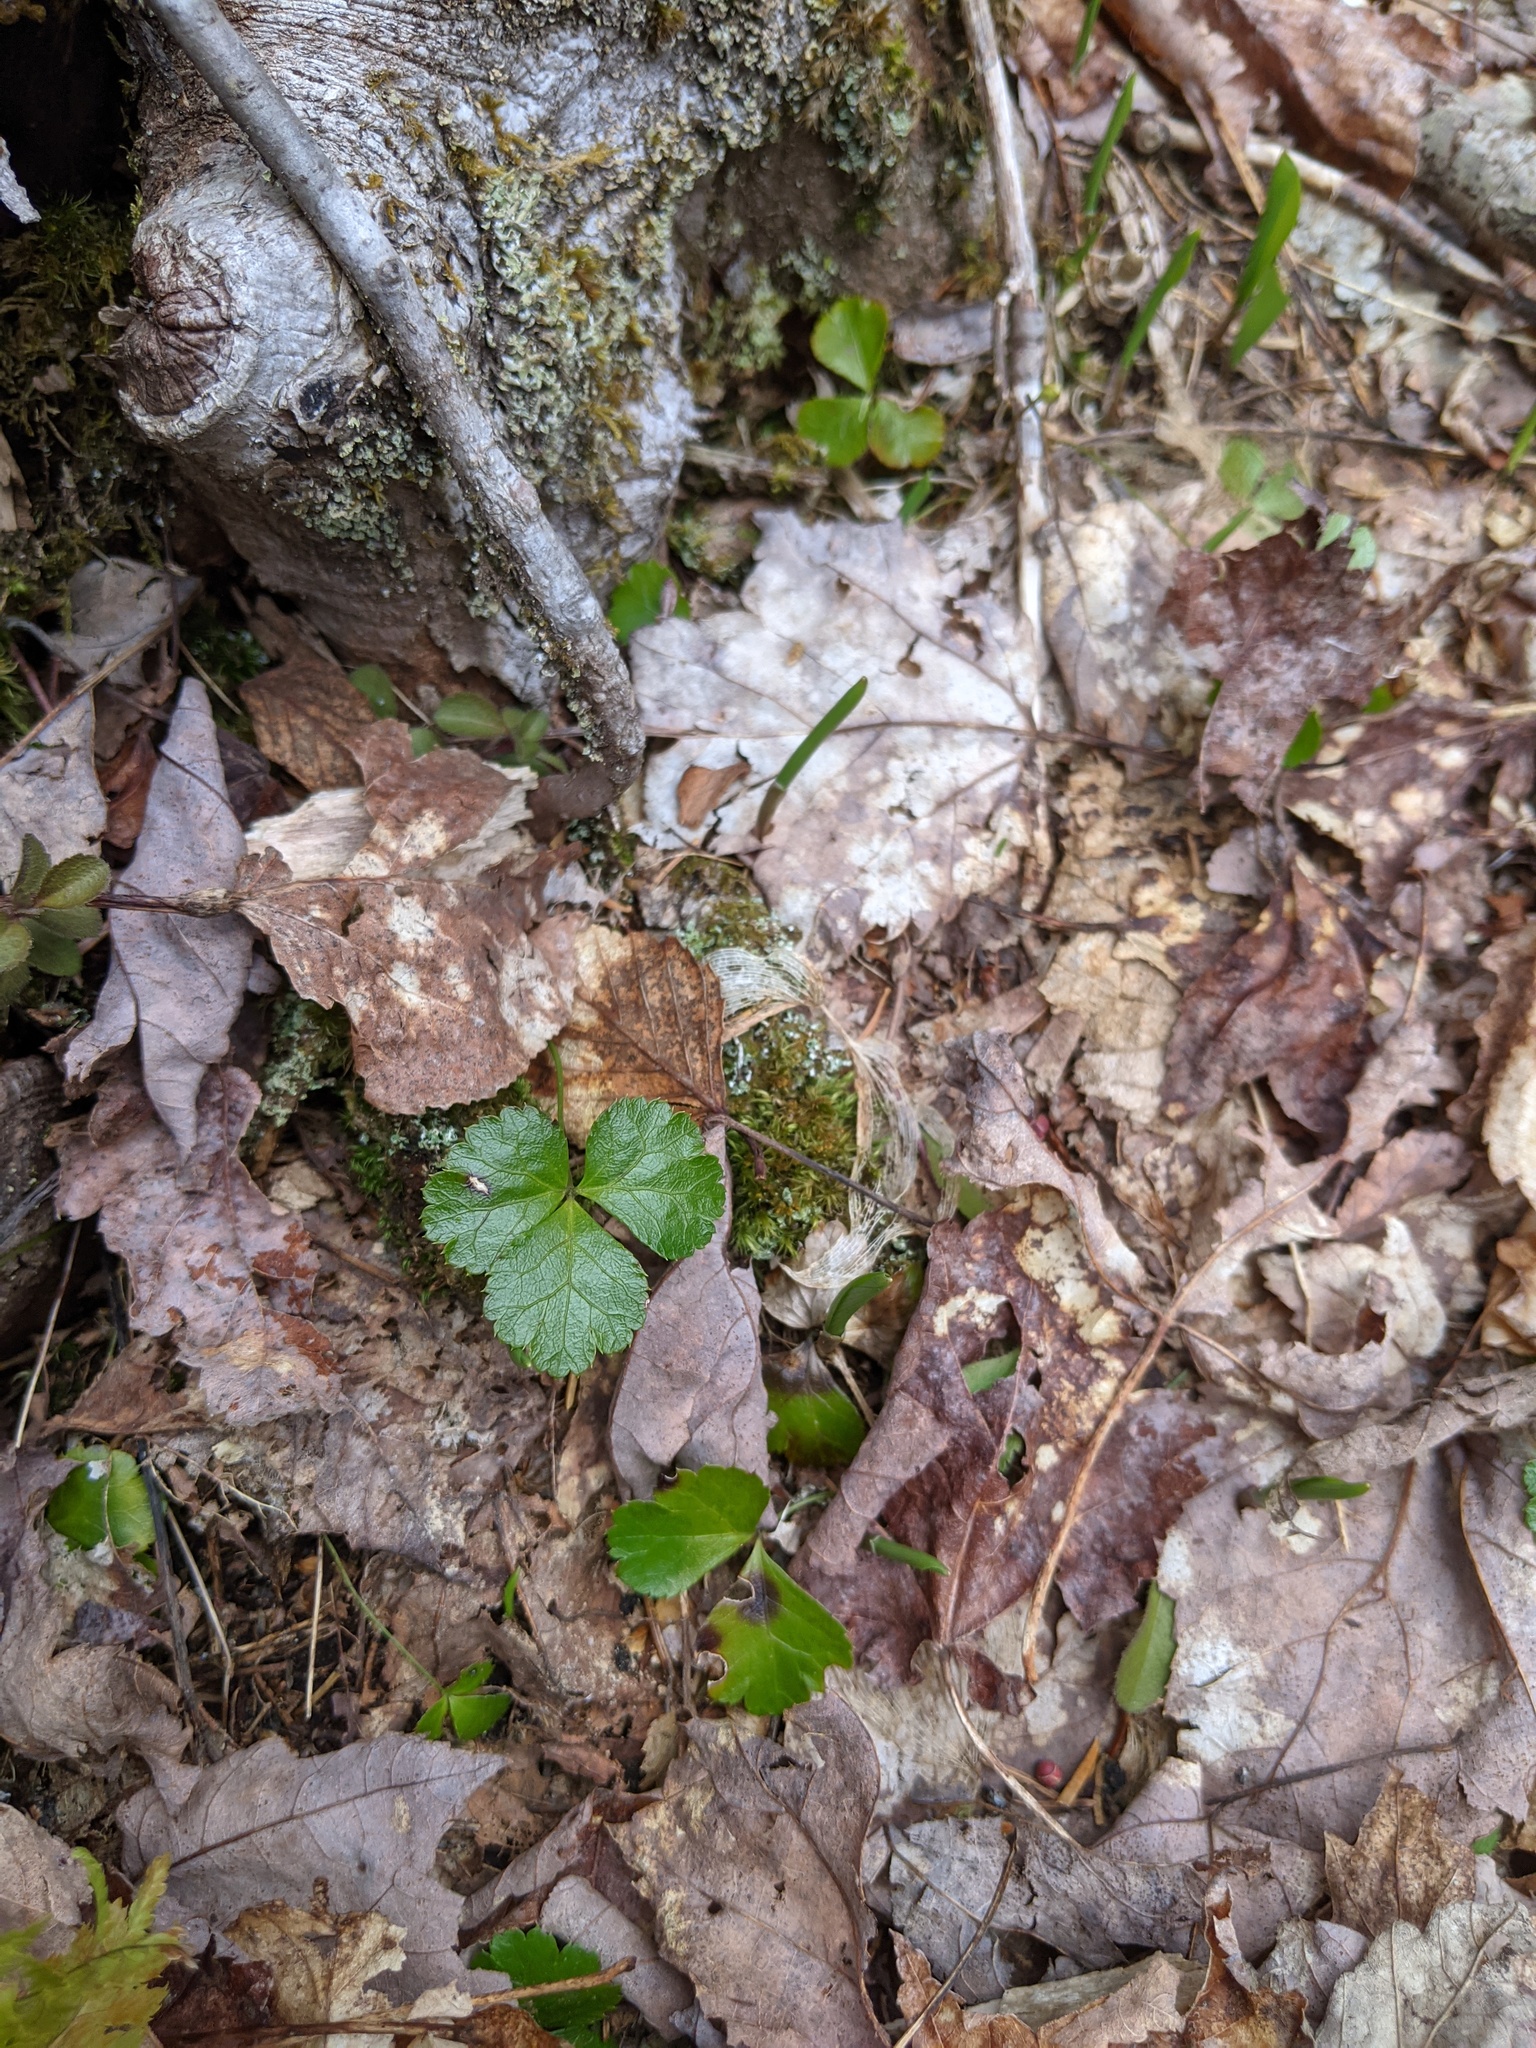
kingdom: Plantae
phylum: Tracheophyta
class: Magnoliopsida
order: Ranunculales
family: Ranunculaceae
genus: Coptis
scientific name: Coptis trifolia
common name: Canker-root
